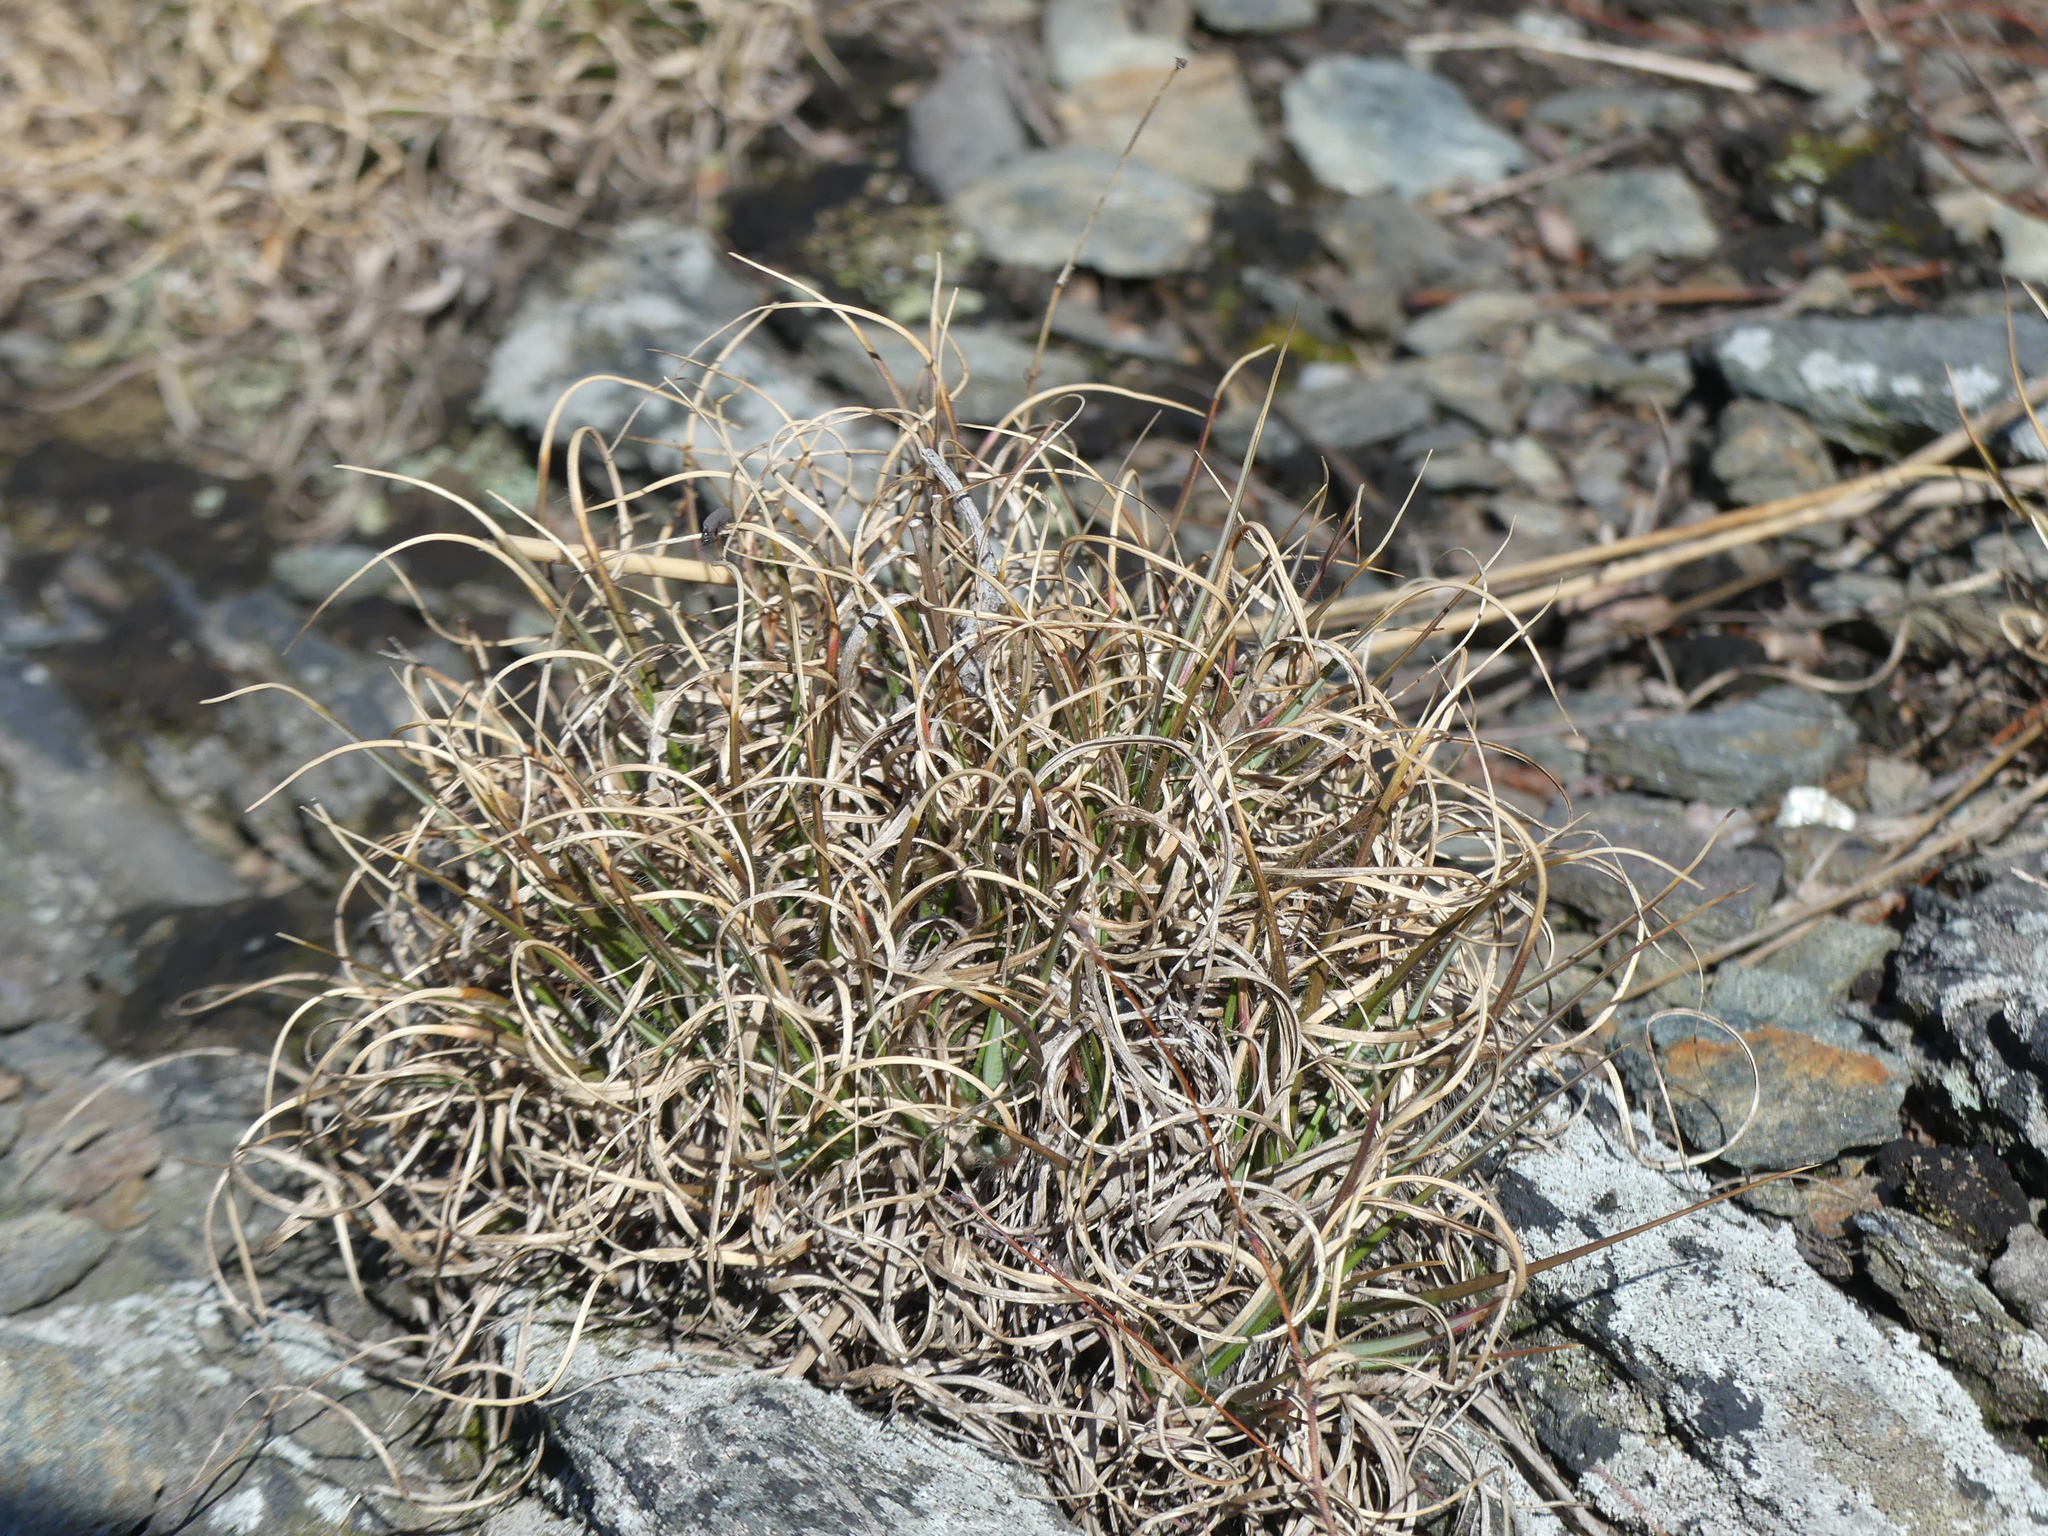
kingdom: Plantae
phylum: Tracheophyta
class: Liliopsida
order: Poales
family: Poaceae
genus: Danthonia
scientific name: Danthonia spicata
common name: Common wild oatgrass
